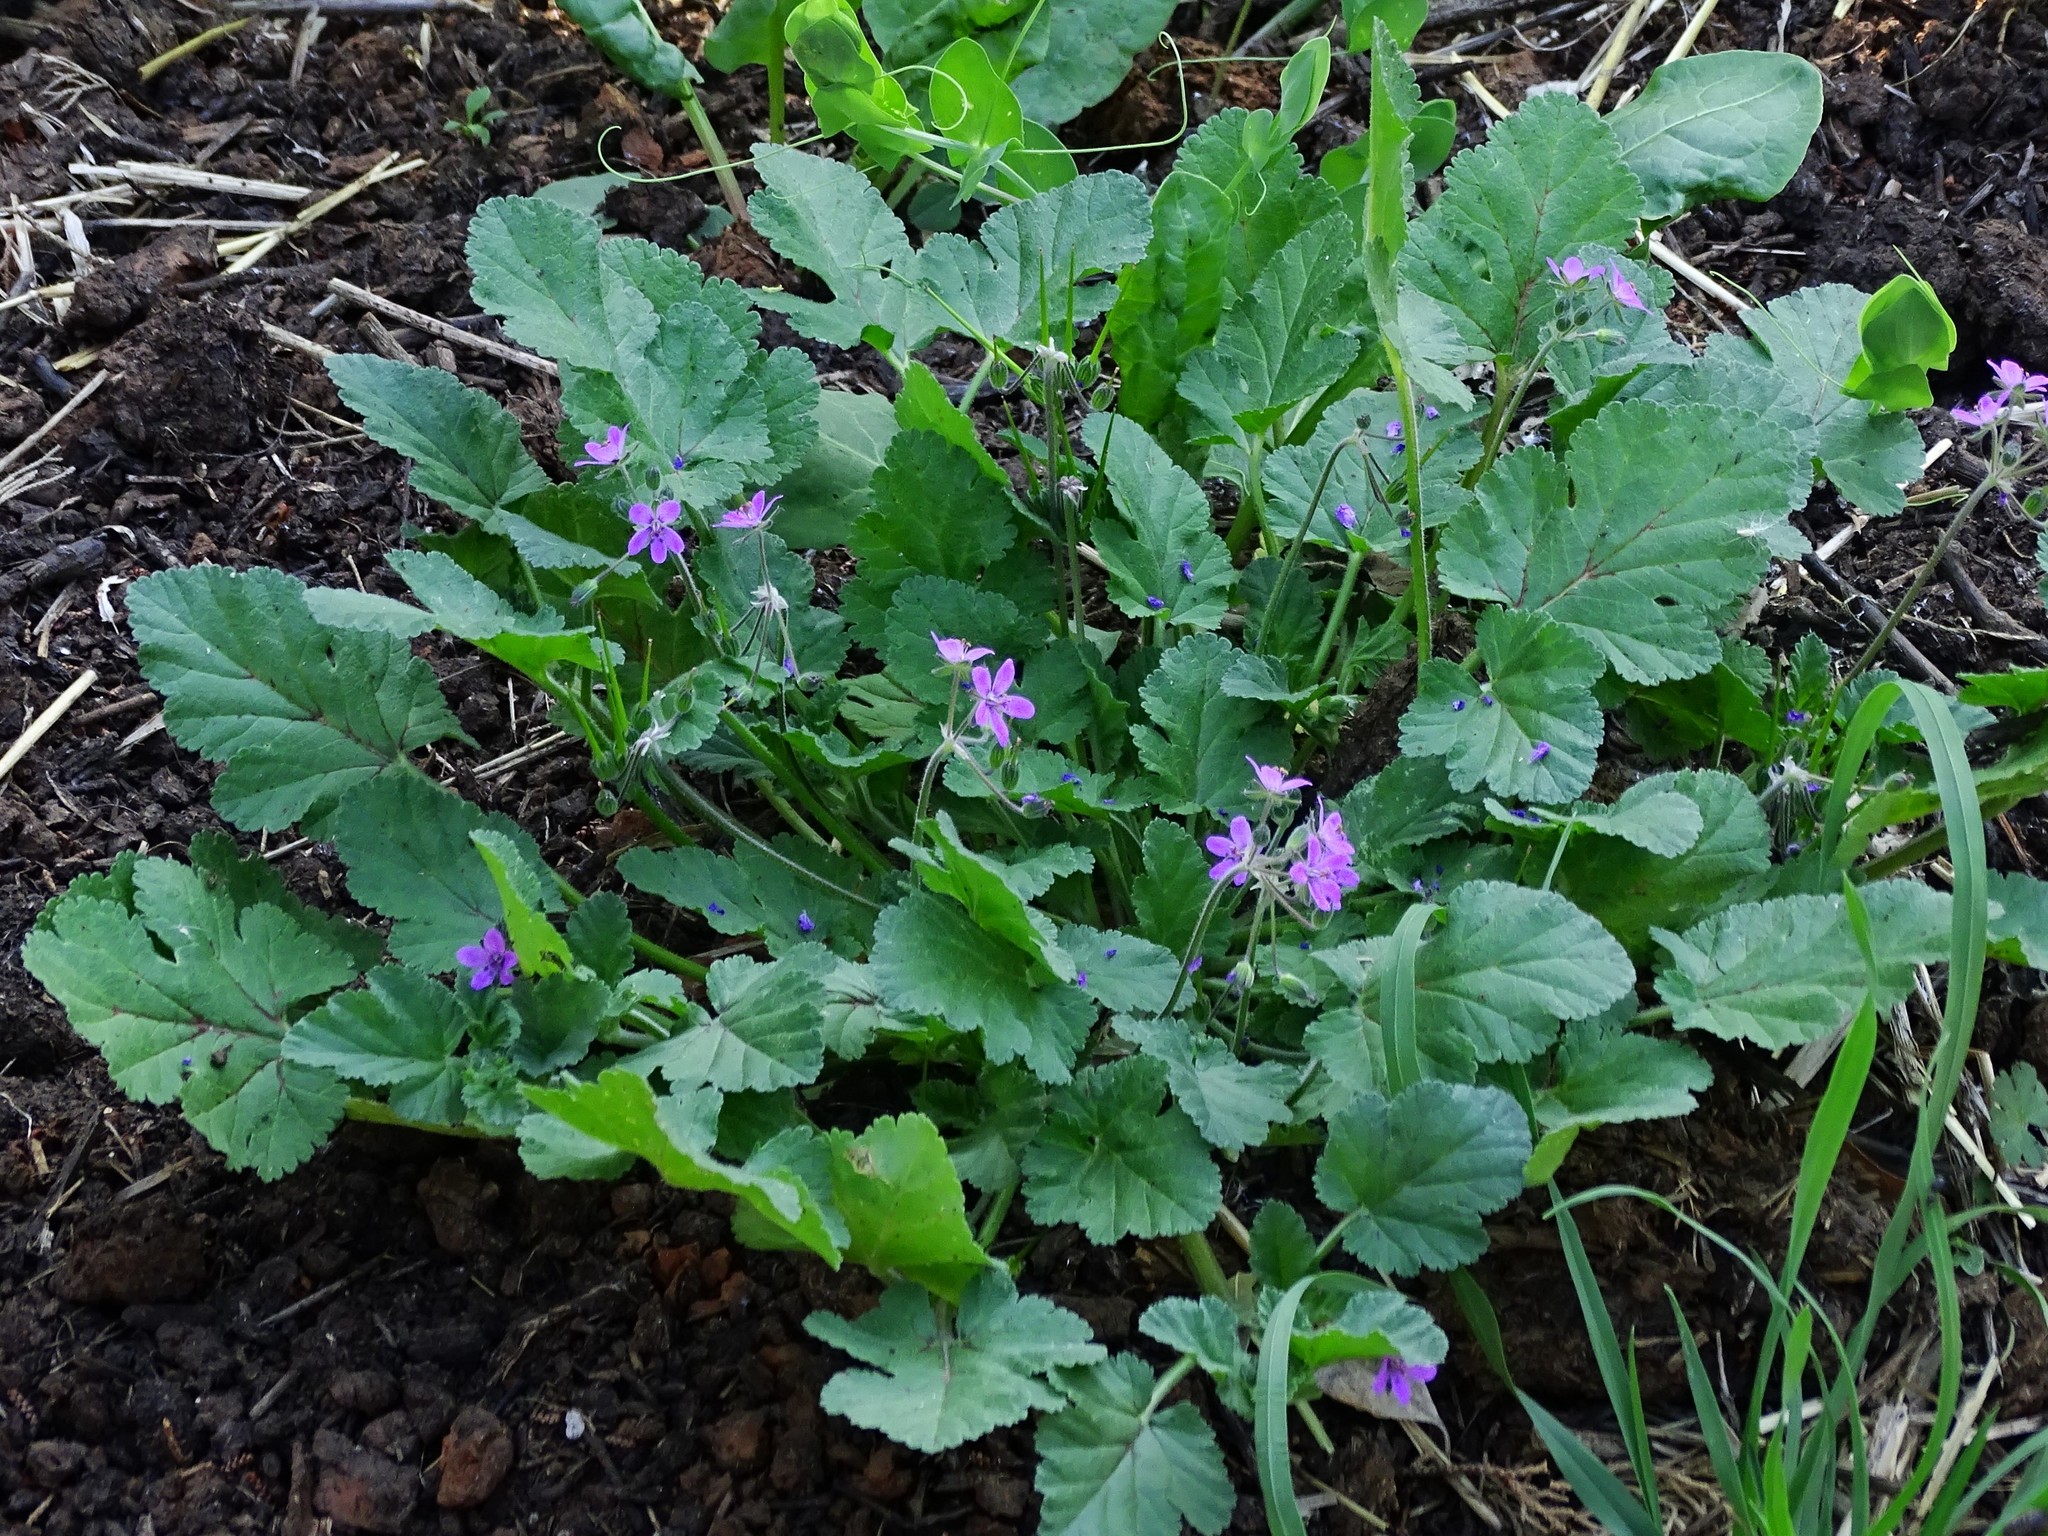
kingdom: Plantae
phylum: Tracheophyta
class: Magnoliopsida
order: Geraniales
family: Geraniaceae
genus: Erodium
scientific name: Erodium malacoides
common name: Soft stork's-bill
